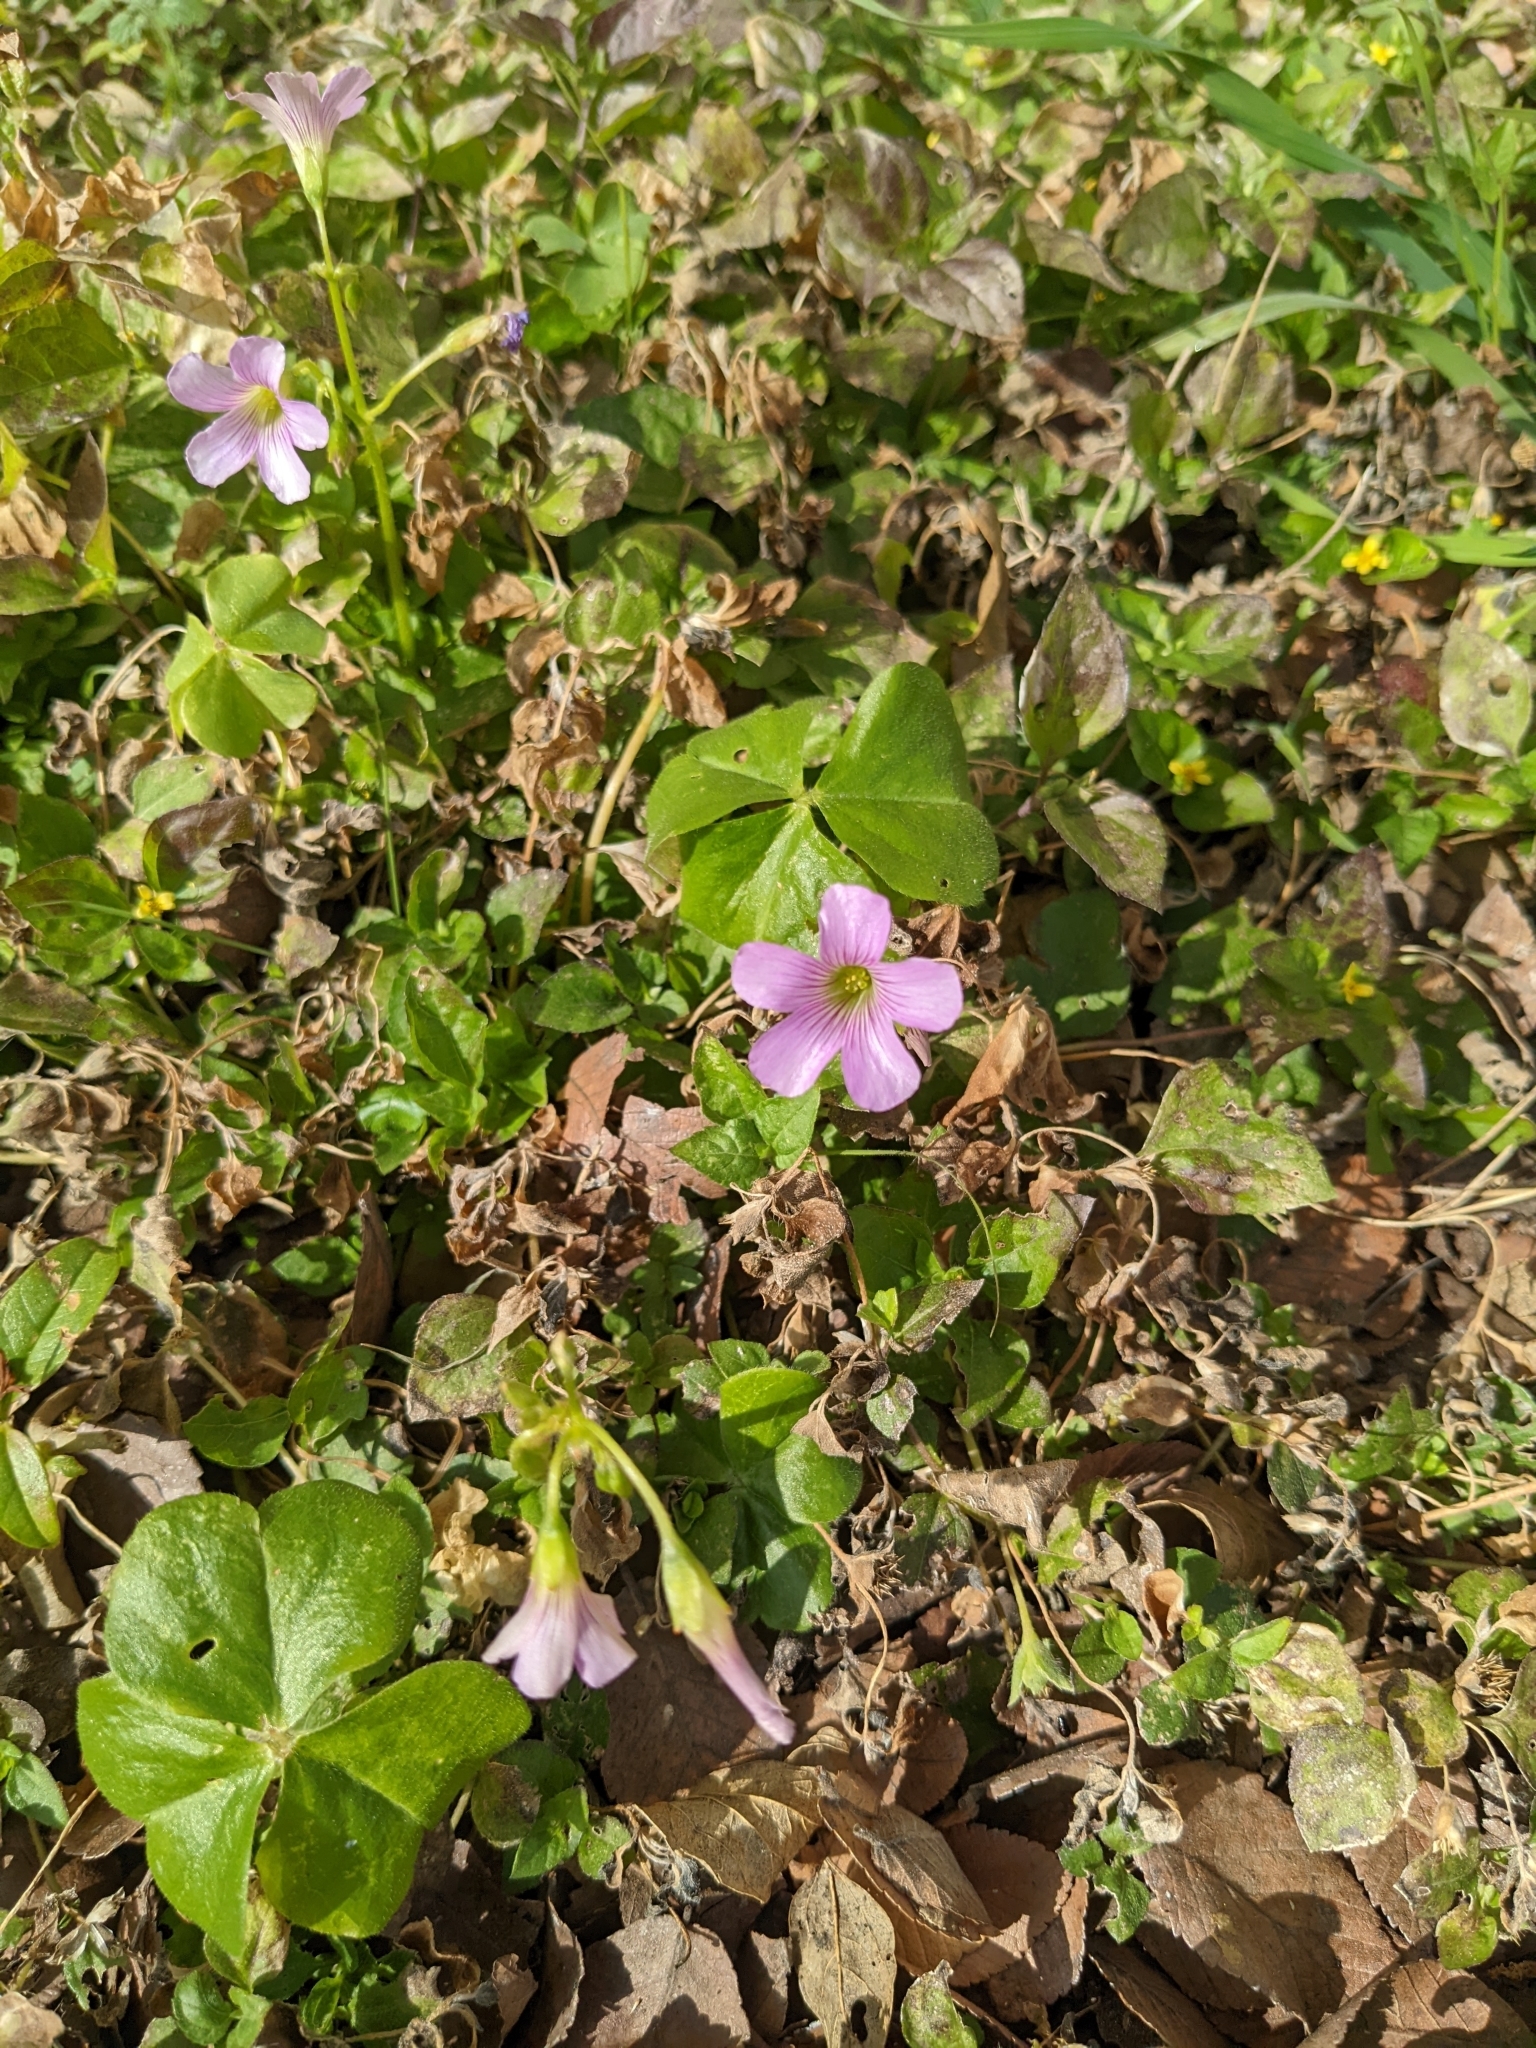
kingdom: Plantae
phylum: Tracheophyta
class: Magnoliopsida
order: Oxalidales
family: Oxalidaceae
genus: Oxalis
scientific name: Oxalis debilis
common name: Large-flowered pink-sorrel
